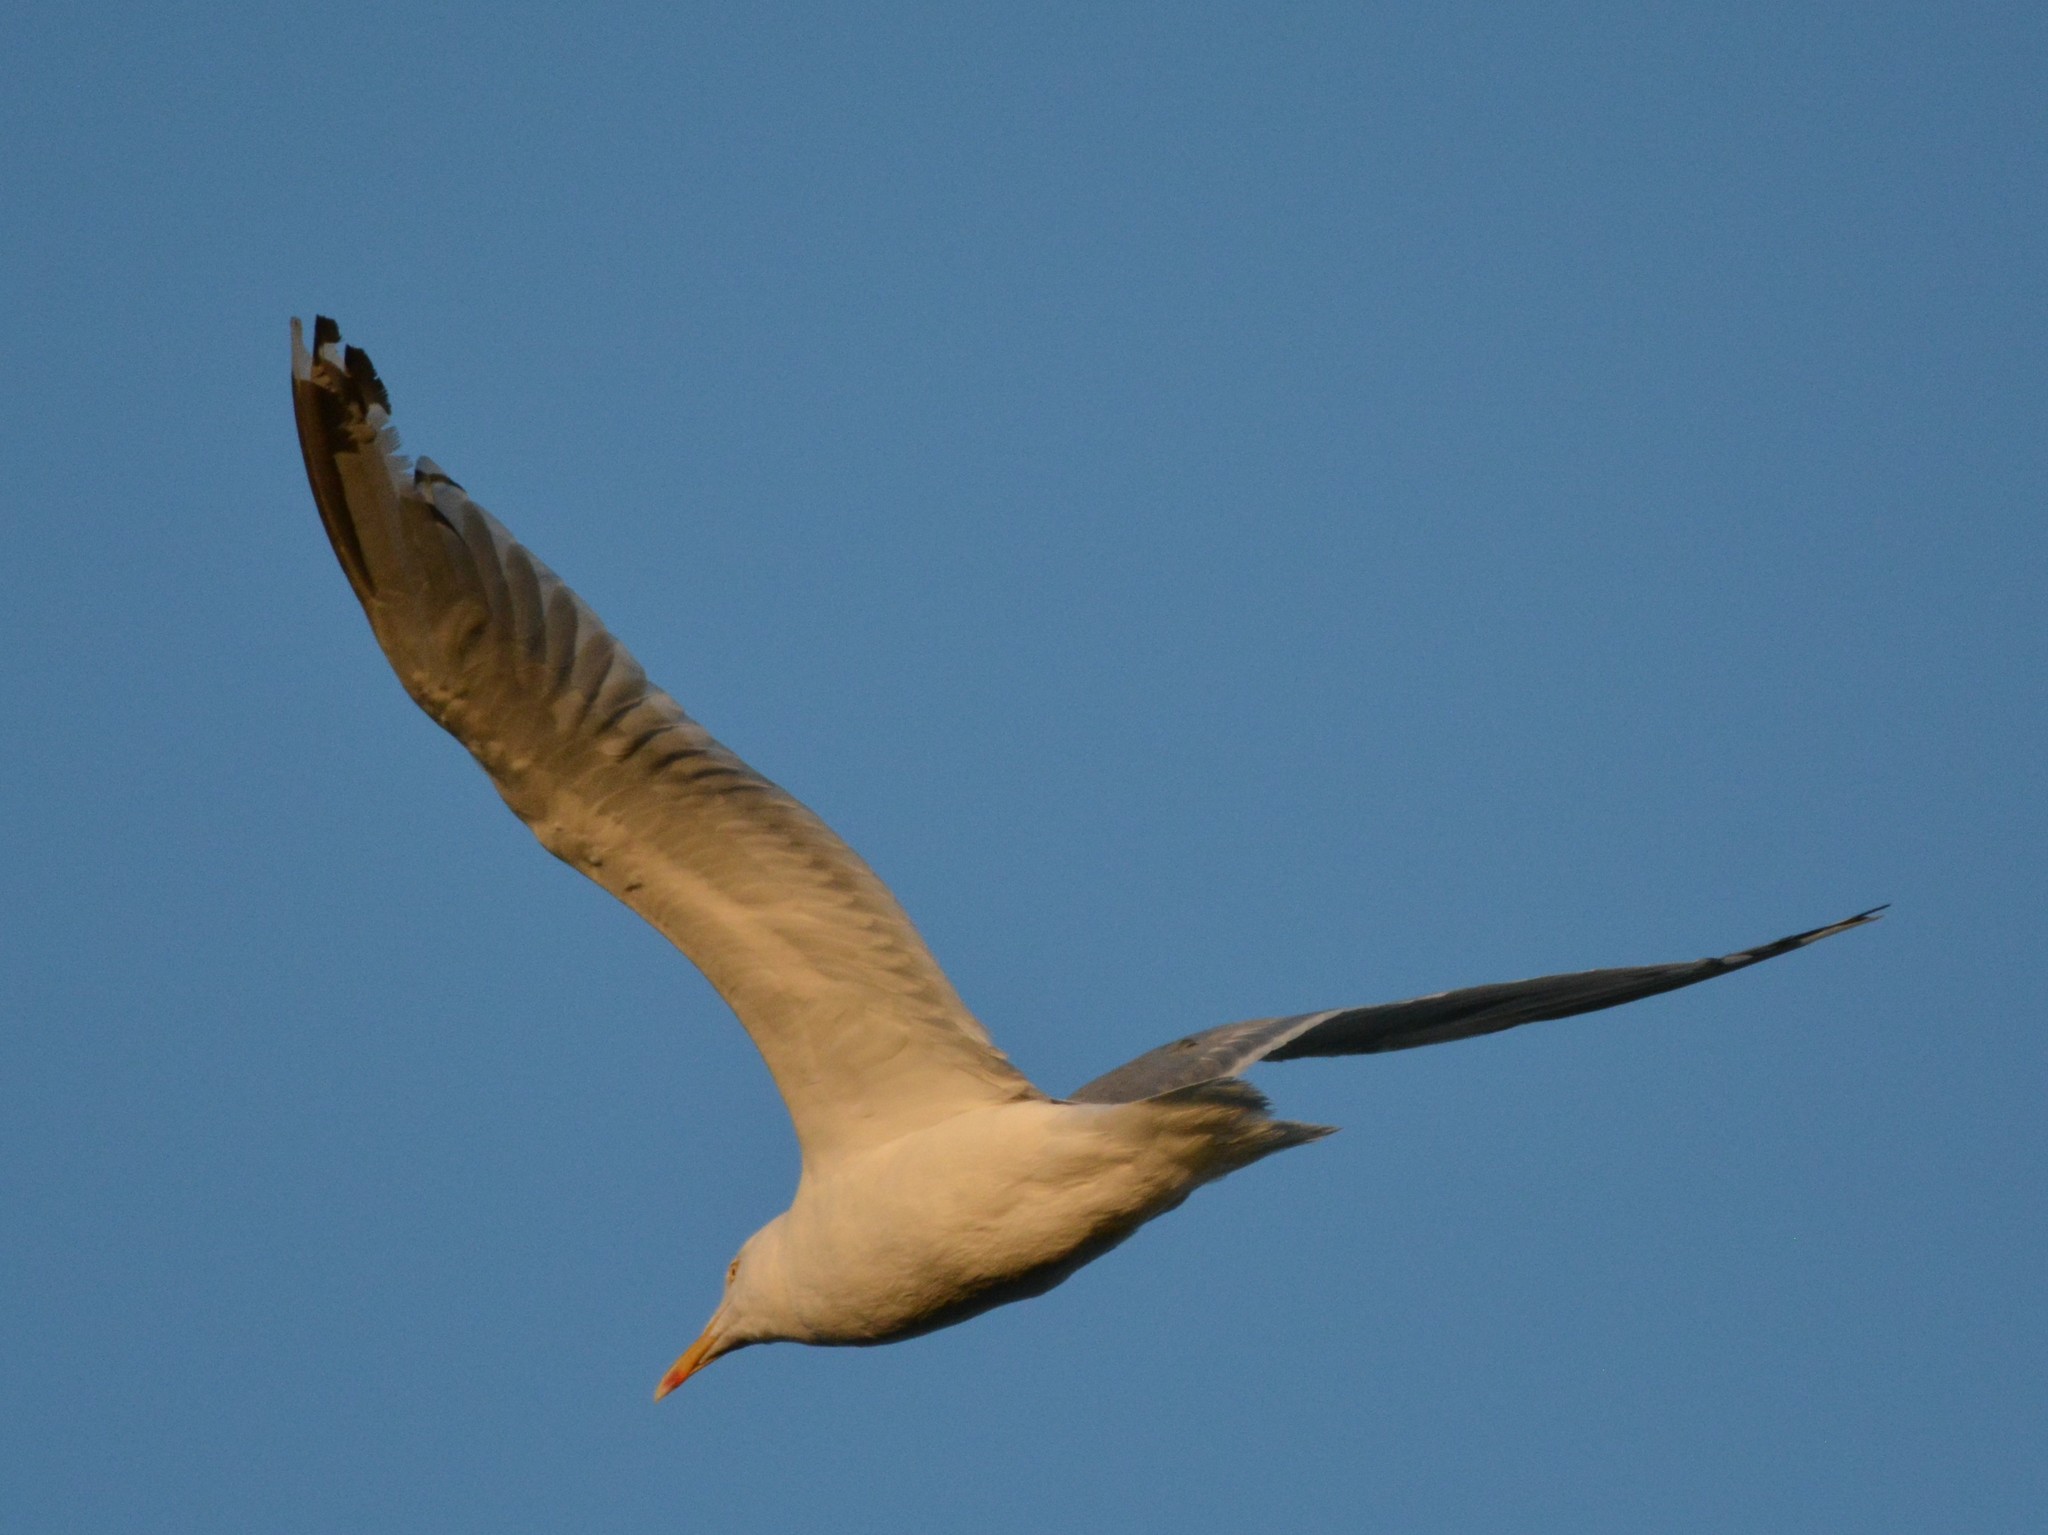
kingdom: Animalia
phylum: Chordata
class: Aves
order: Charadriiformes
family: Laridae
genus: Larus
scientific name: Larus argentatus
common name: Herring gull
